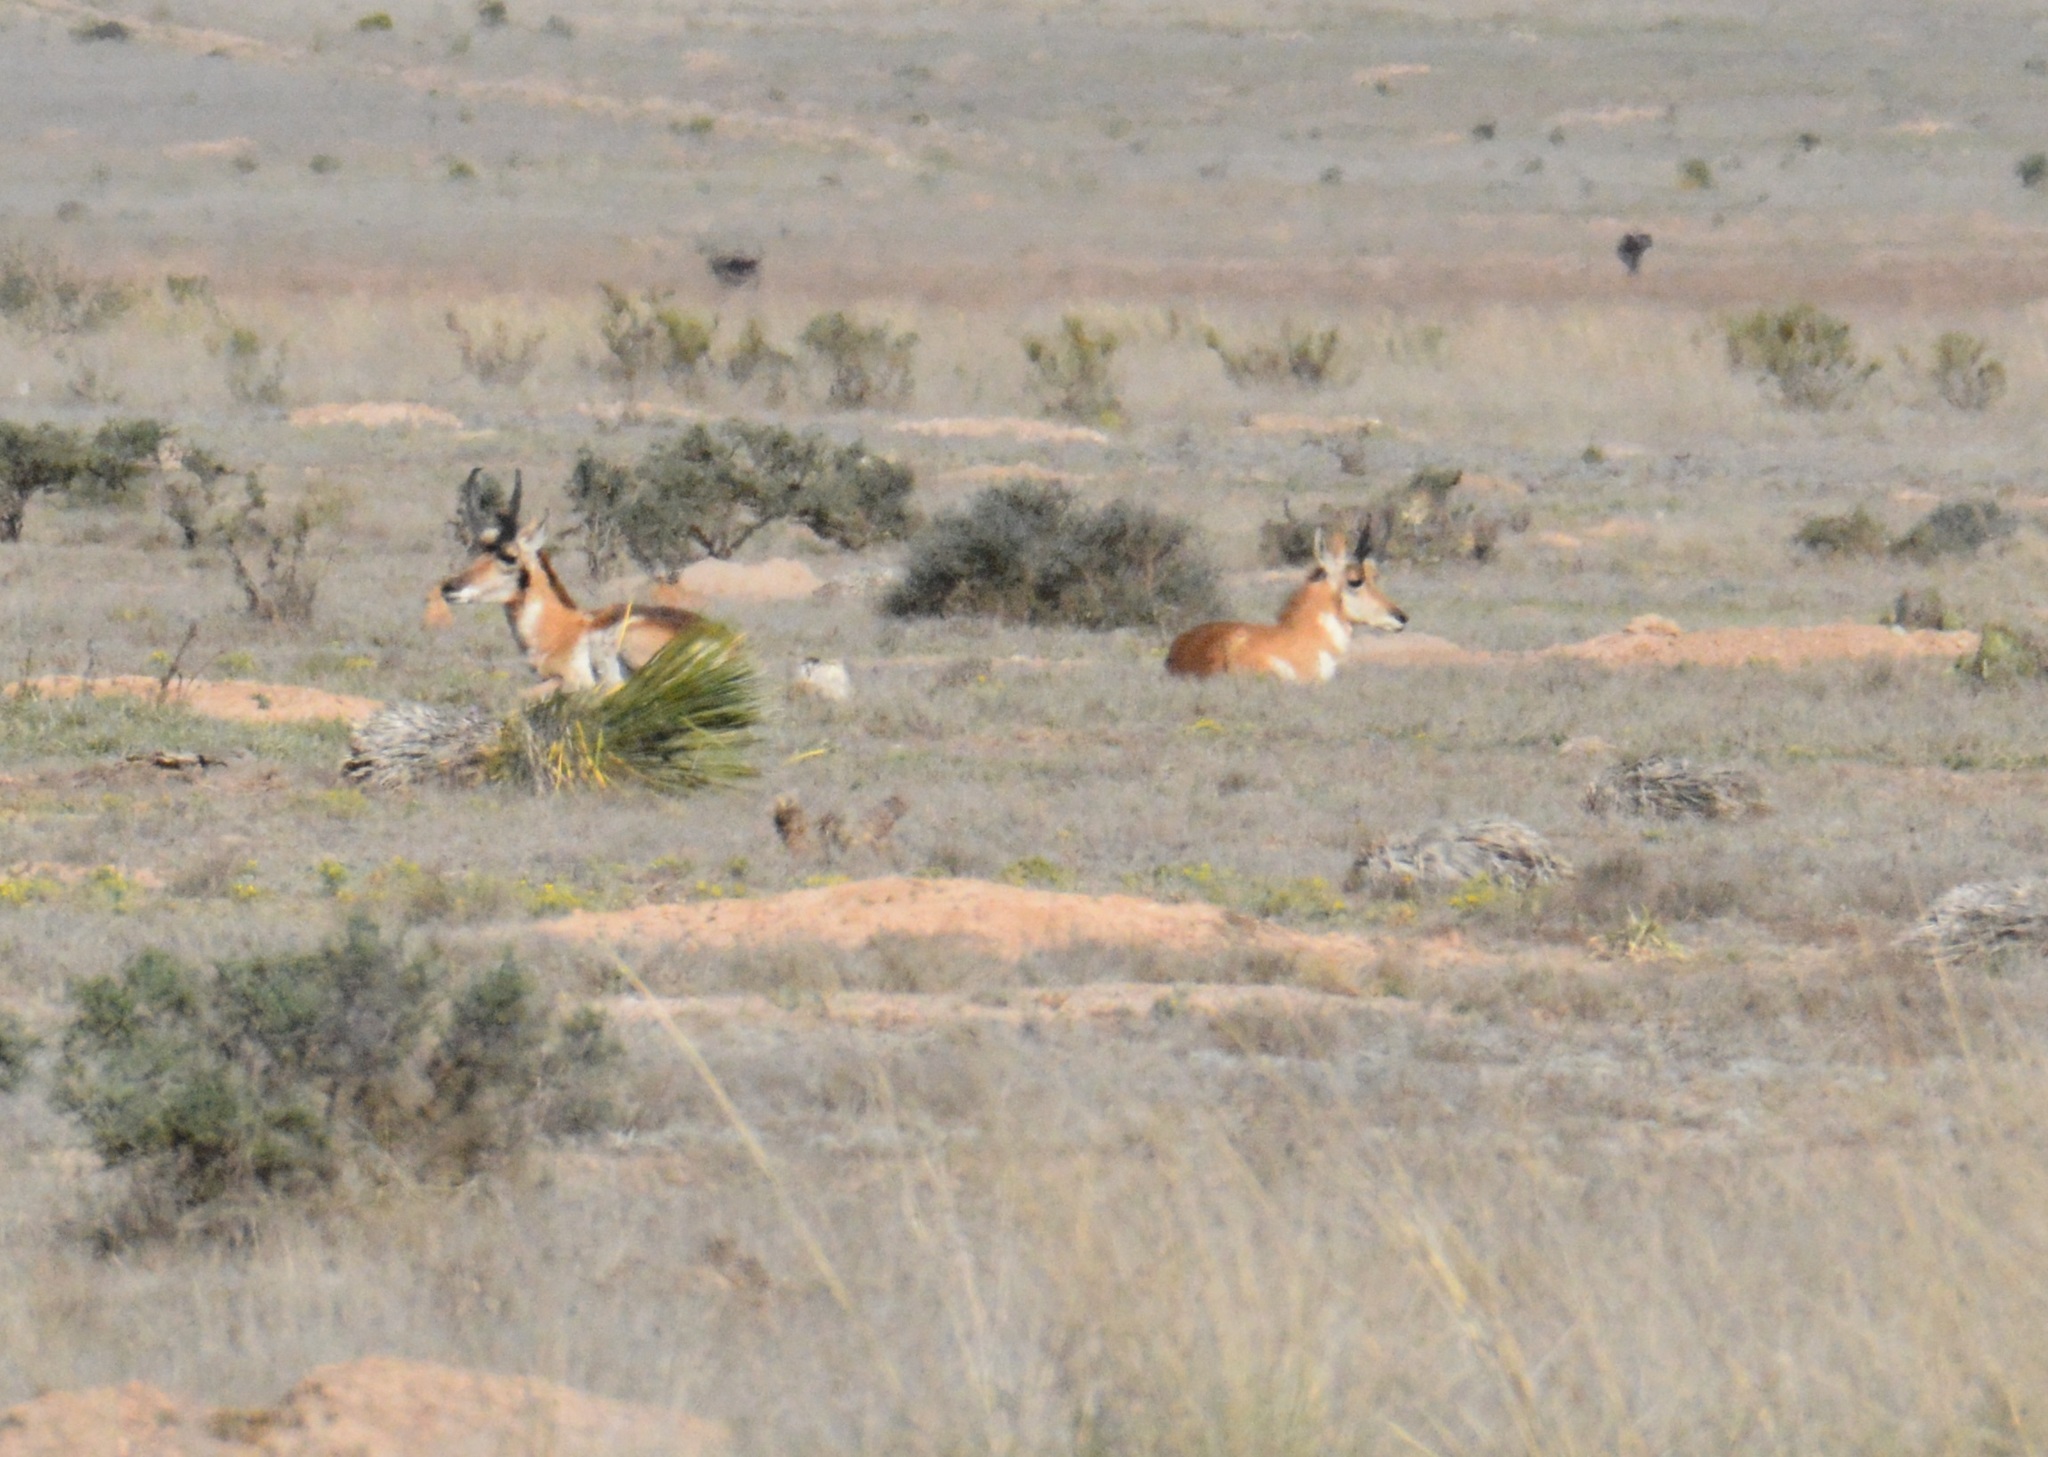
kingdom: Animalia
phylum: Chordata
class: Mammalia
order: Artiodactyla
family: Antilocapridae
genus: Antilocapra
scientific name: Antilocapra americana
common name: Pronghorn
